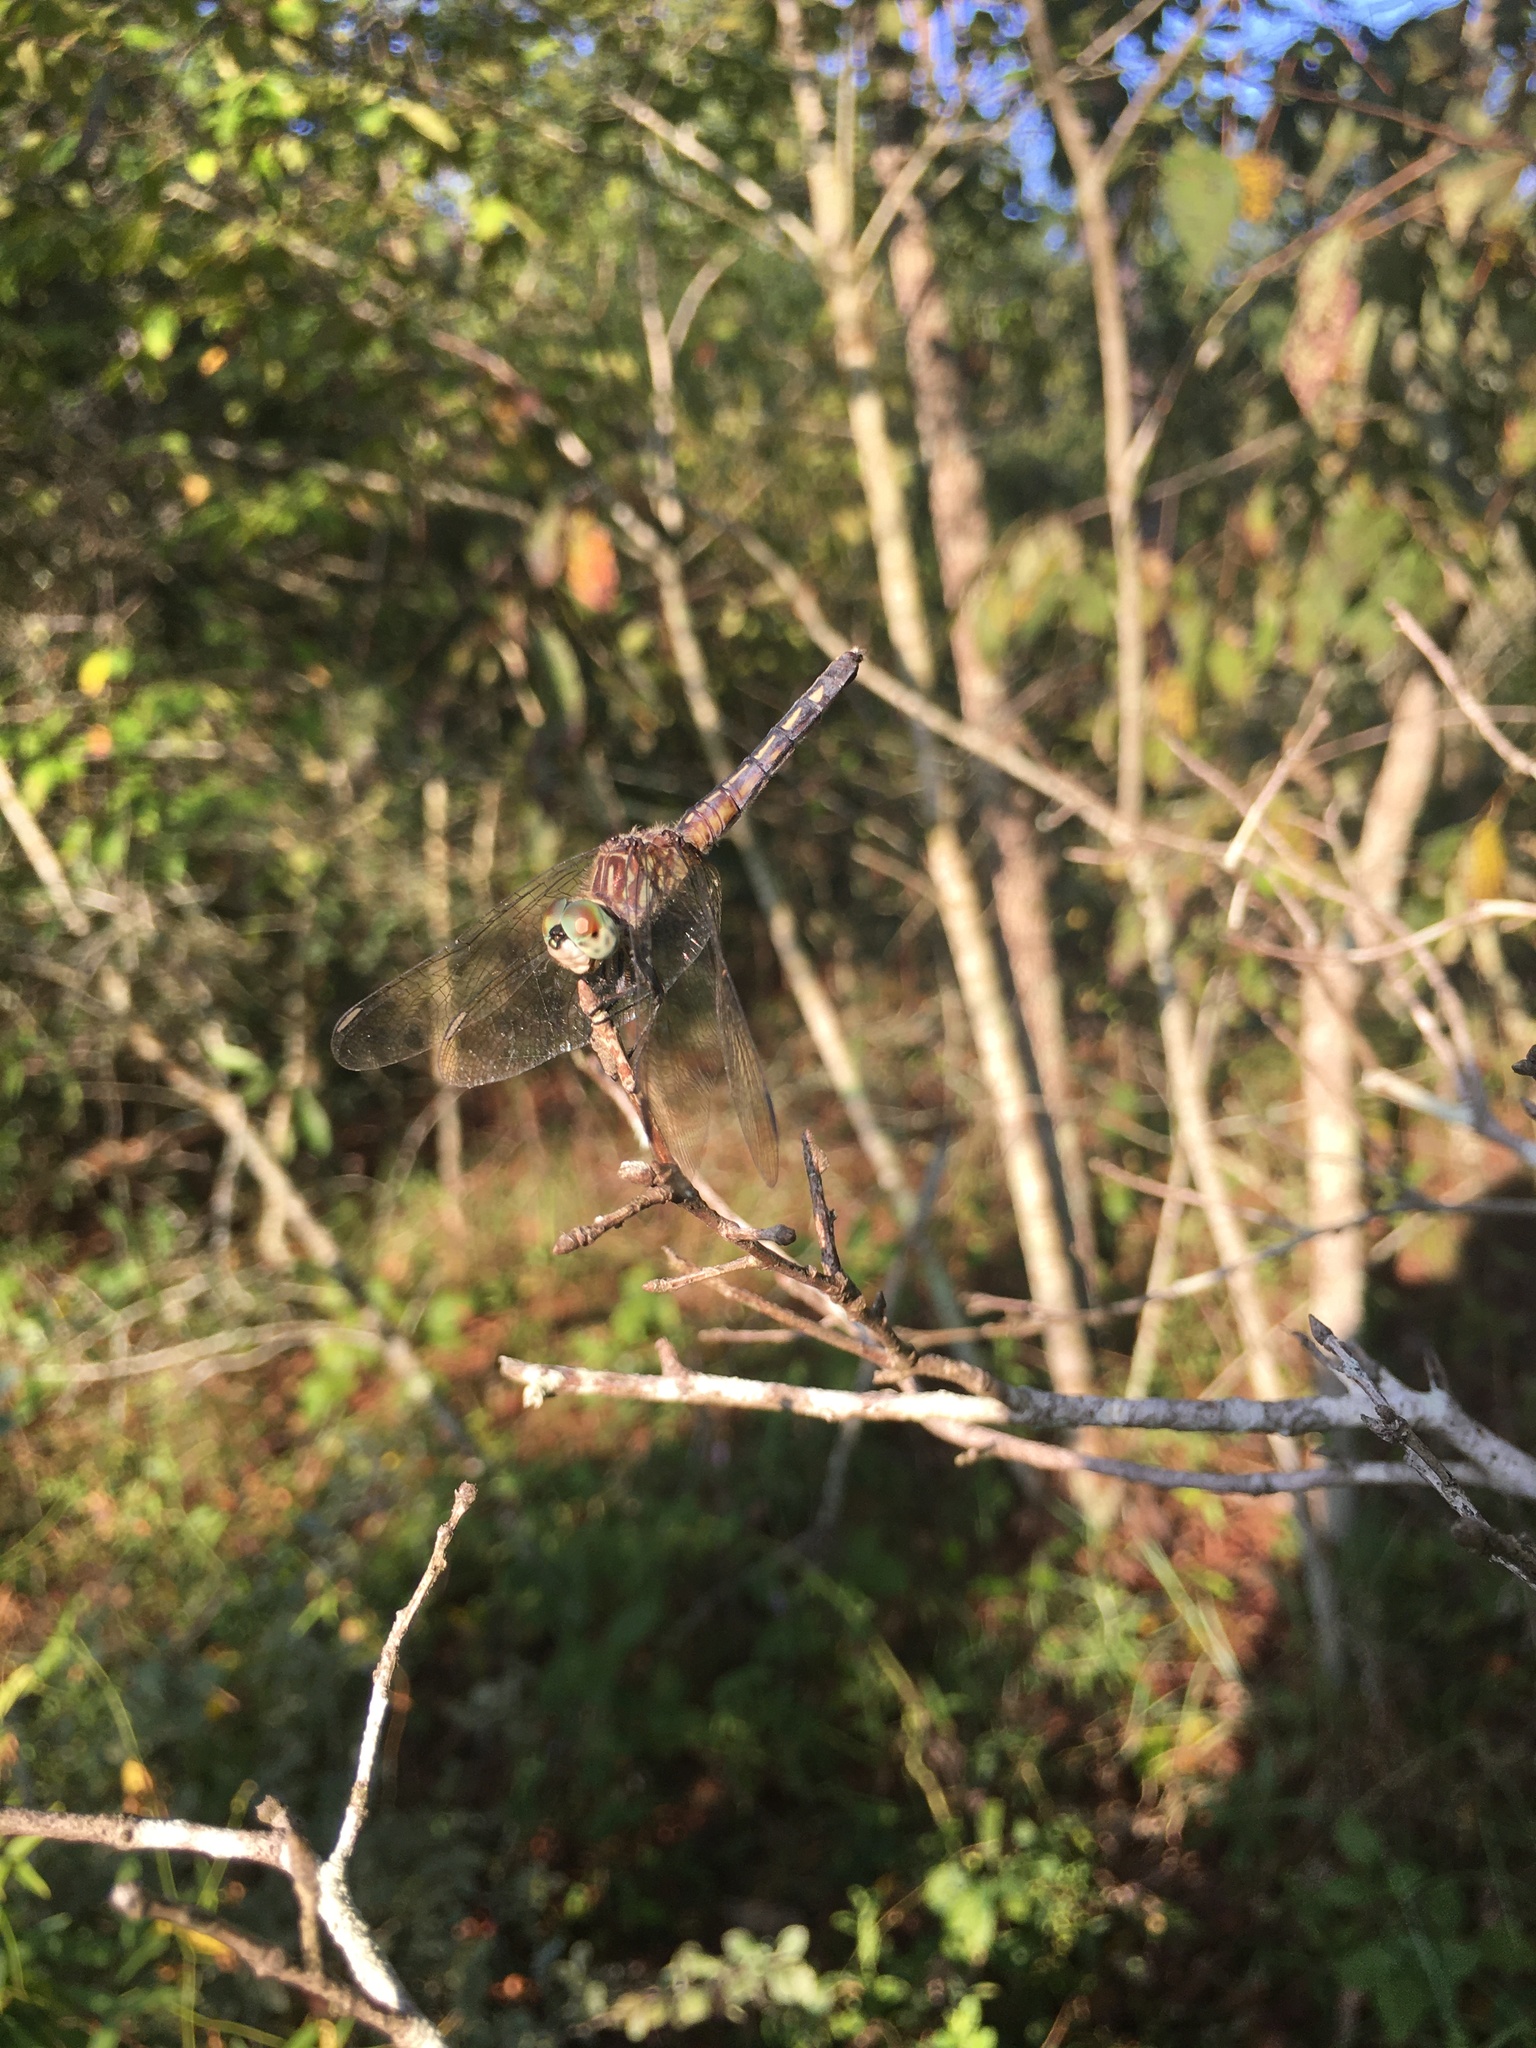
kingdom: Animalia
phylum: Arthropoda
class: Insecta
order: Odonata
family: Libellulidae
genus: Pachydiplax
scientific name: Pachydiplax longipennis
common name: Blue dasher
